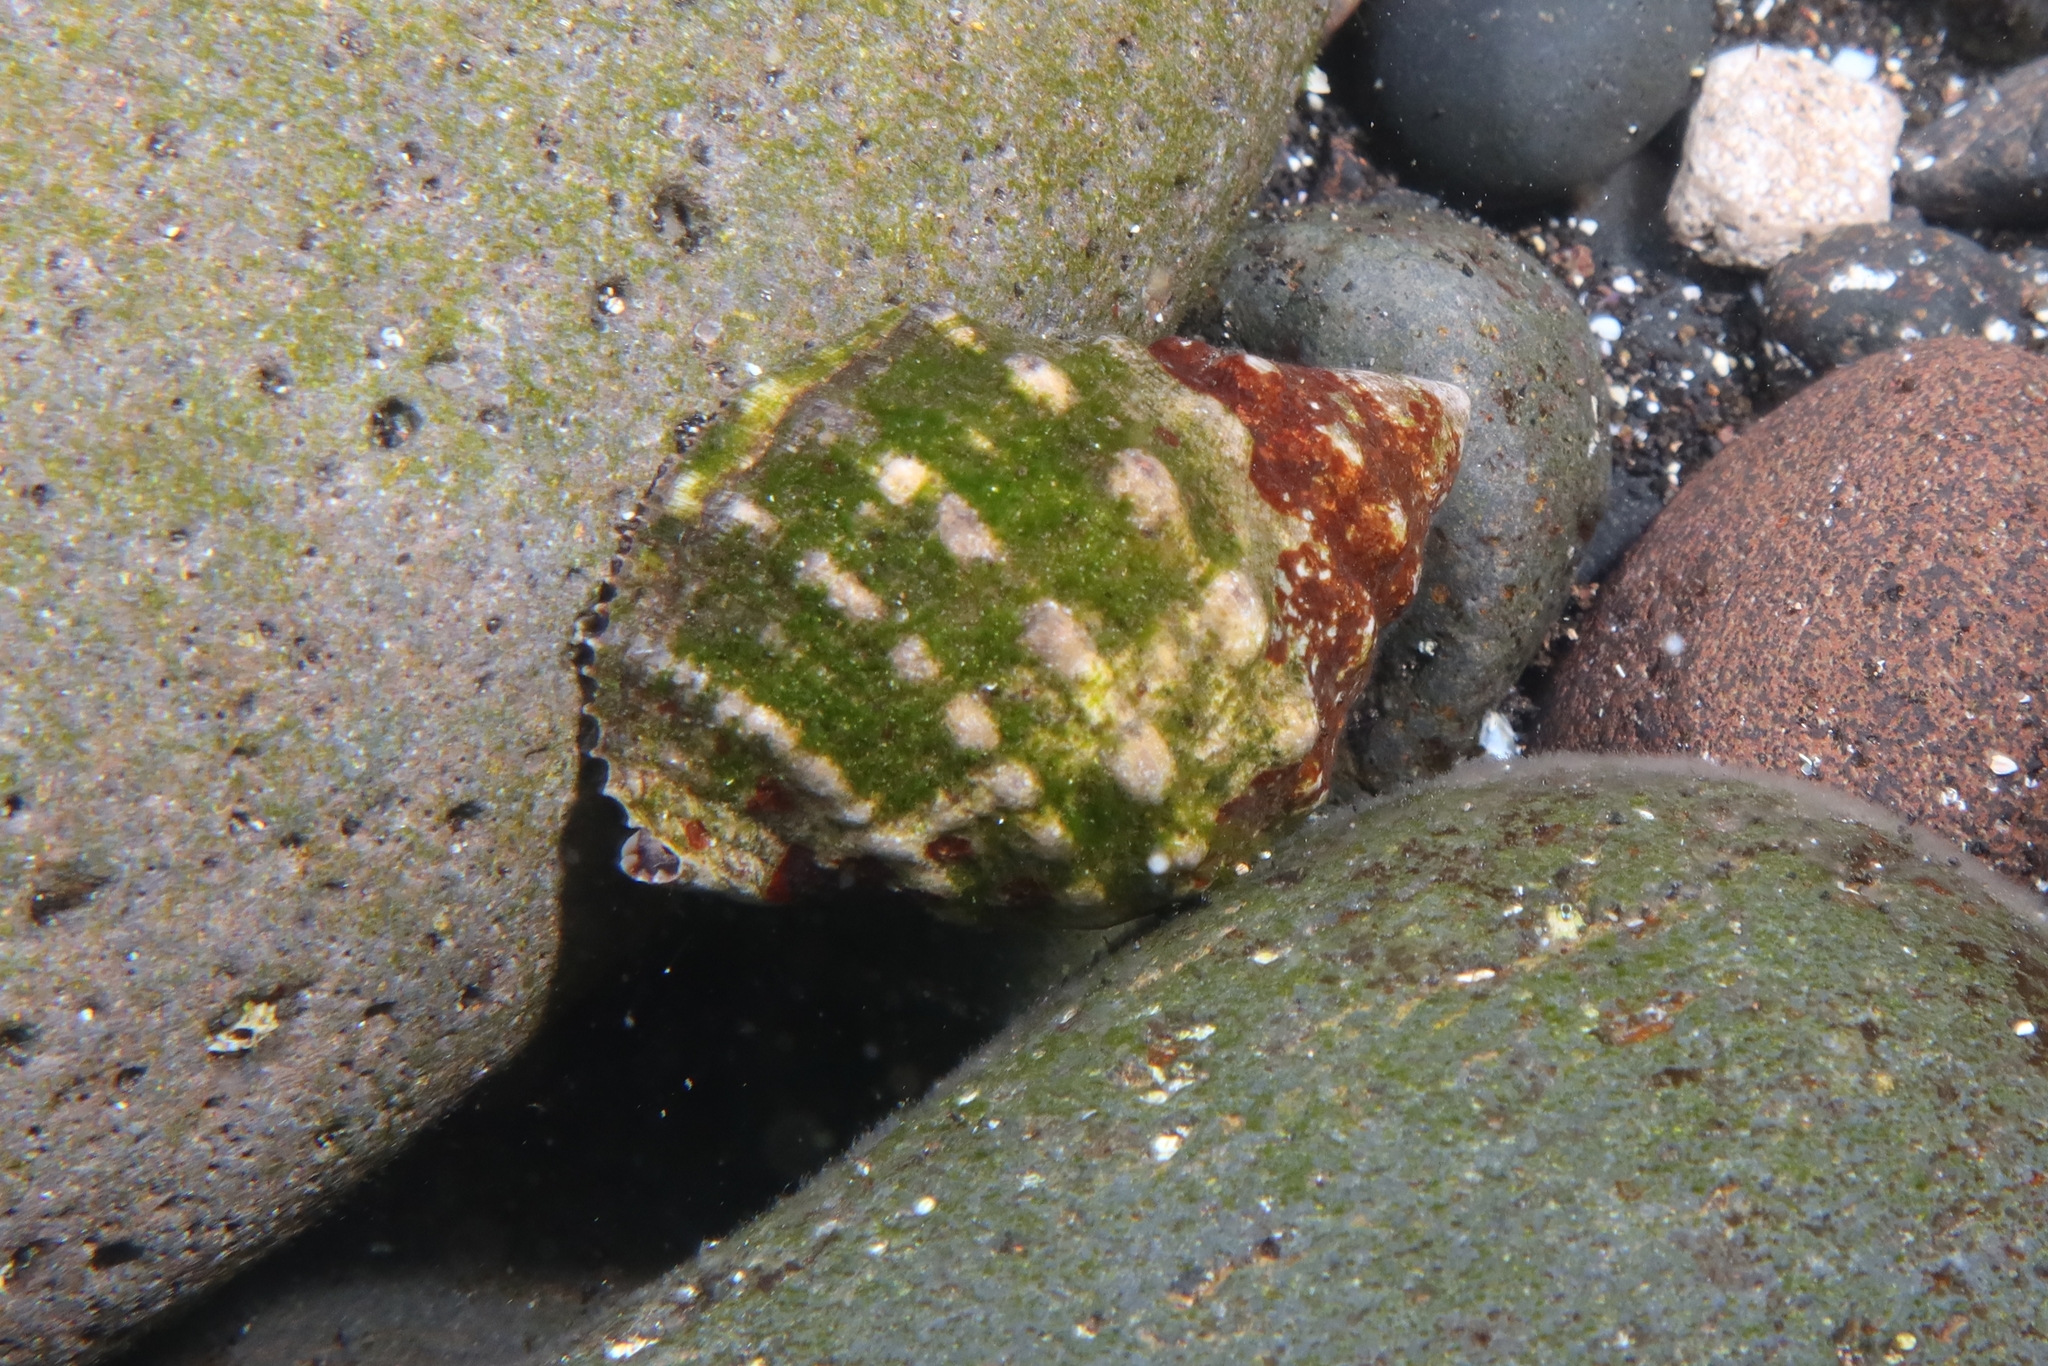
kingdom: Animalia
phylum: Mollusca
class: Gastropoda
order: Neogastropoda
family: Muricidae
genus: Stramonita
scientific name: Stramonita haemastoma
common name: Florida dog winkle
